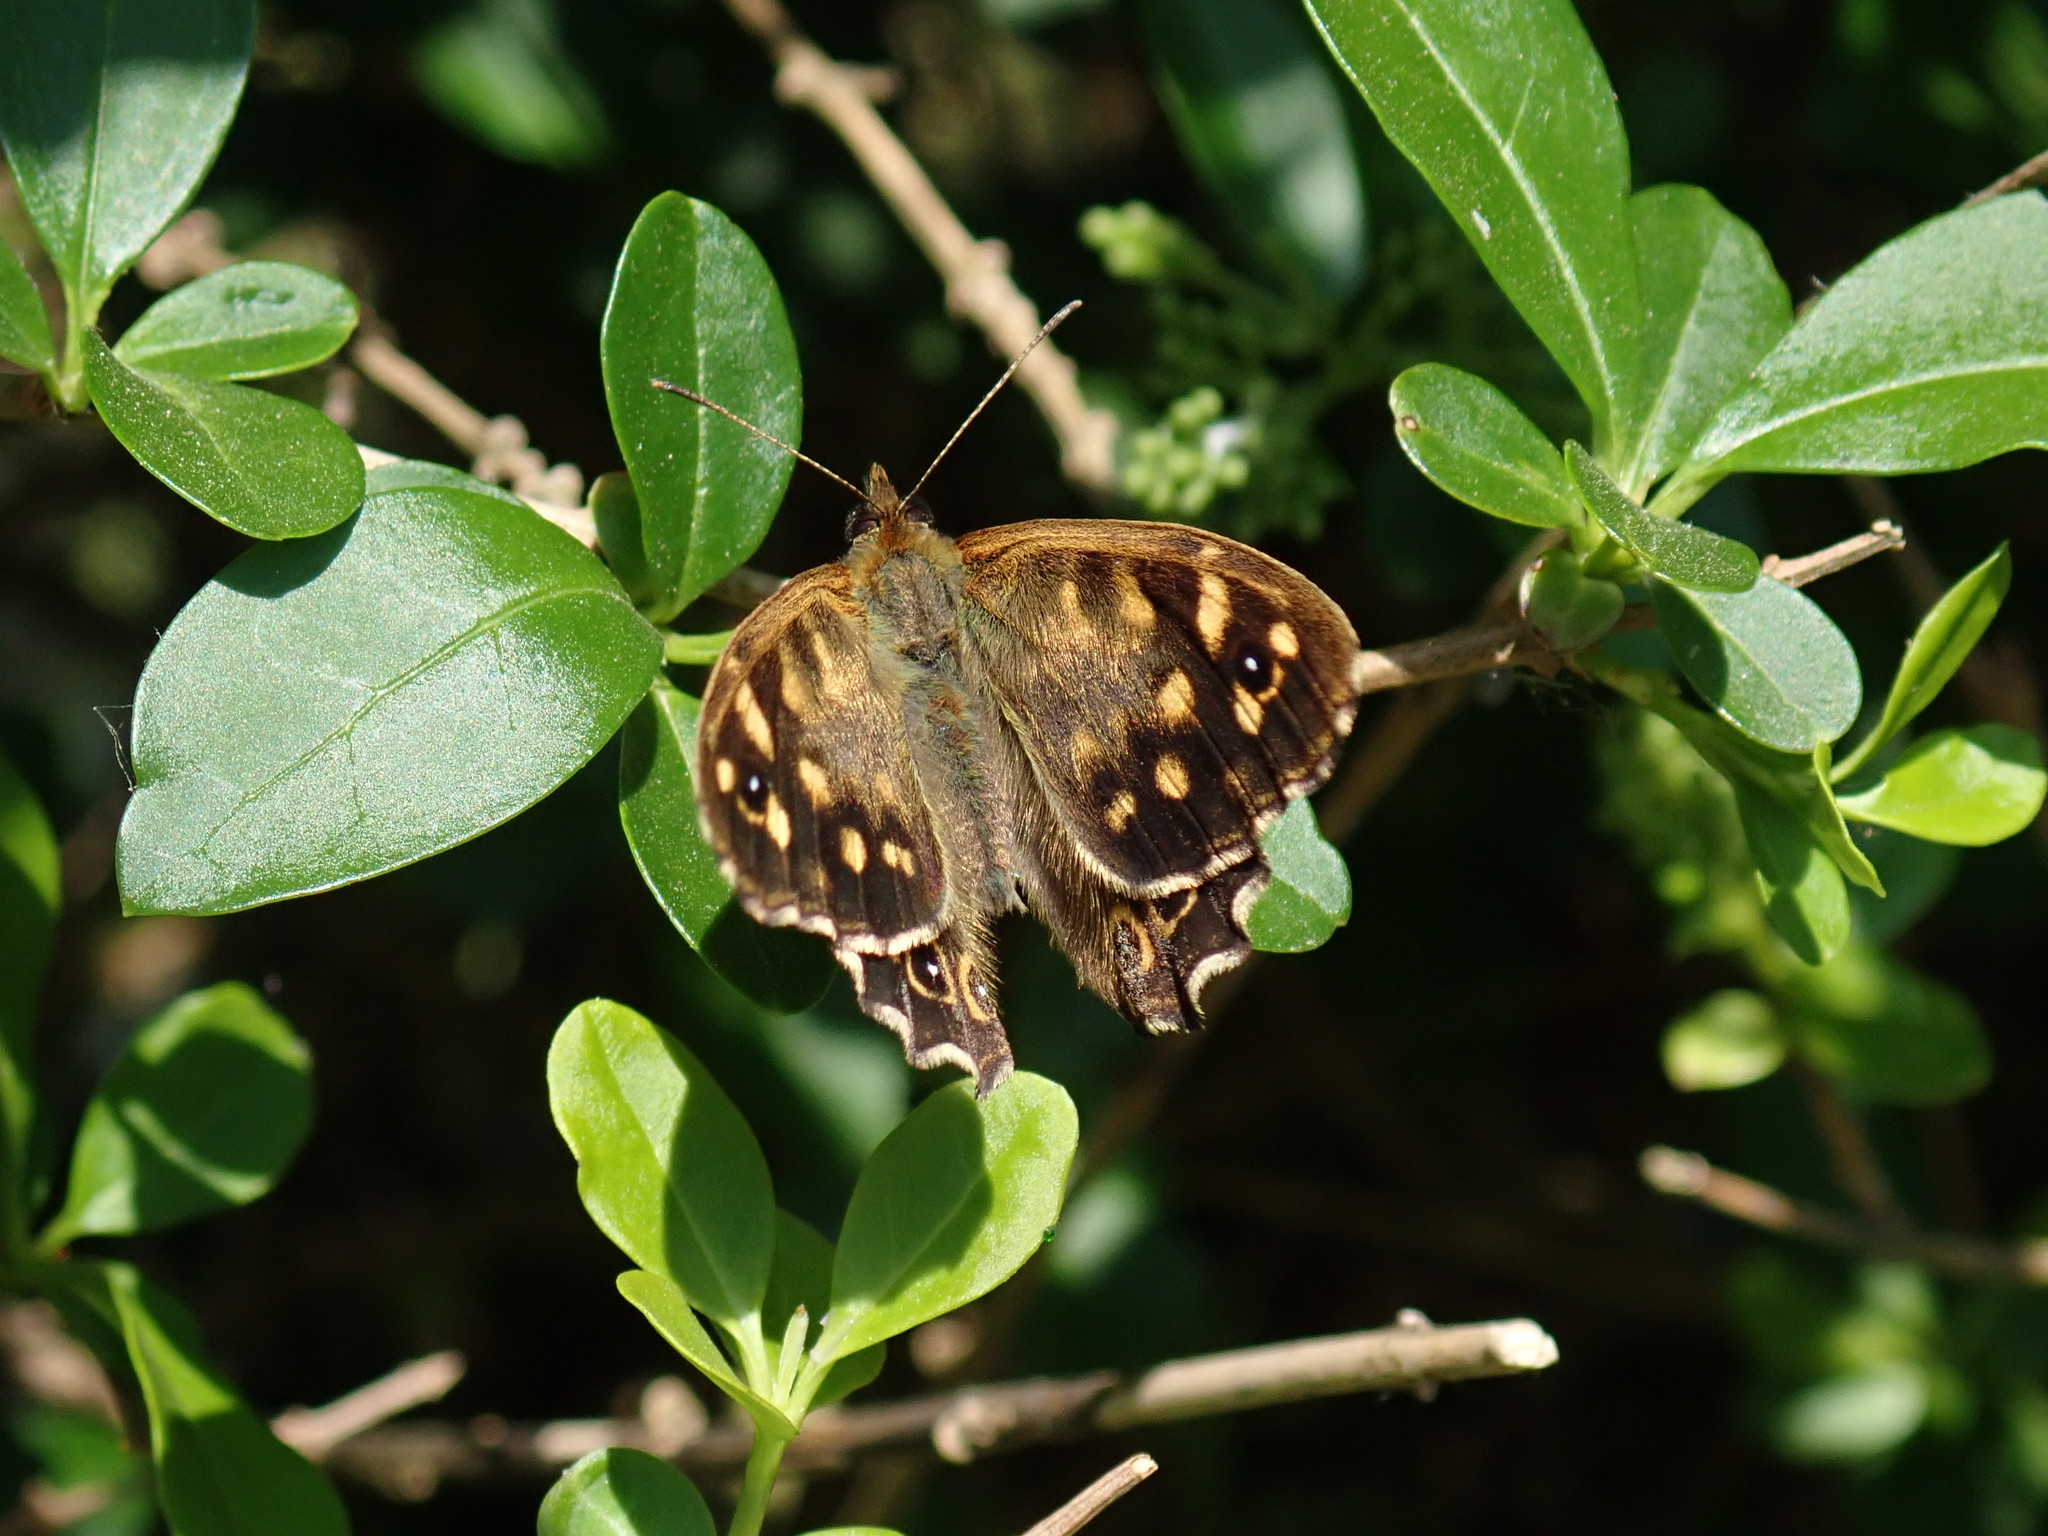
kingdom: Animalia
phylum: Arthropoda
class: Insecta
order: Lepidoptera
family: Nymphalidae
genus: Pararge
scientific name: Pararge aegeria
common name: Speckled wood
